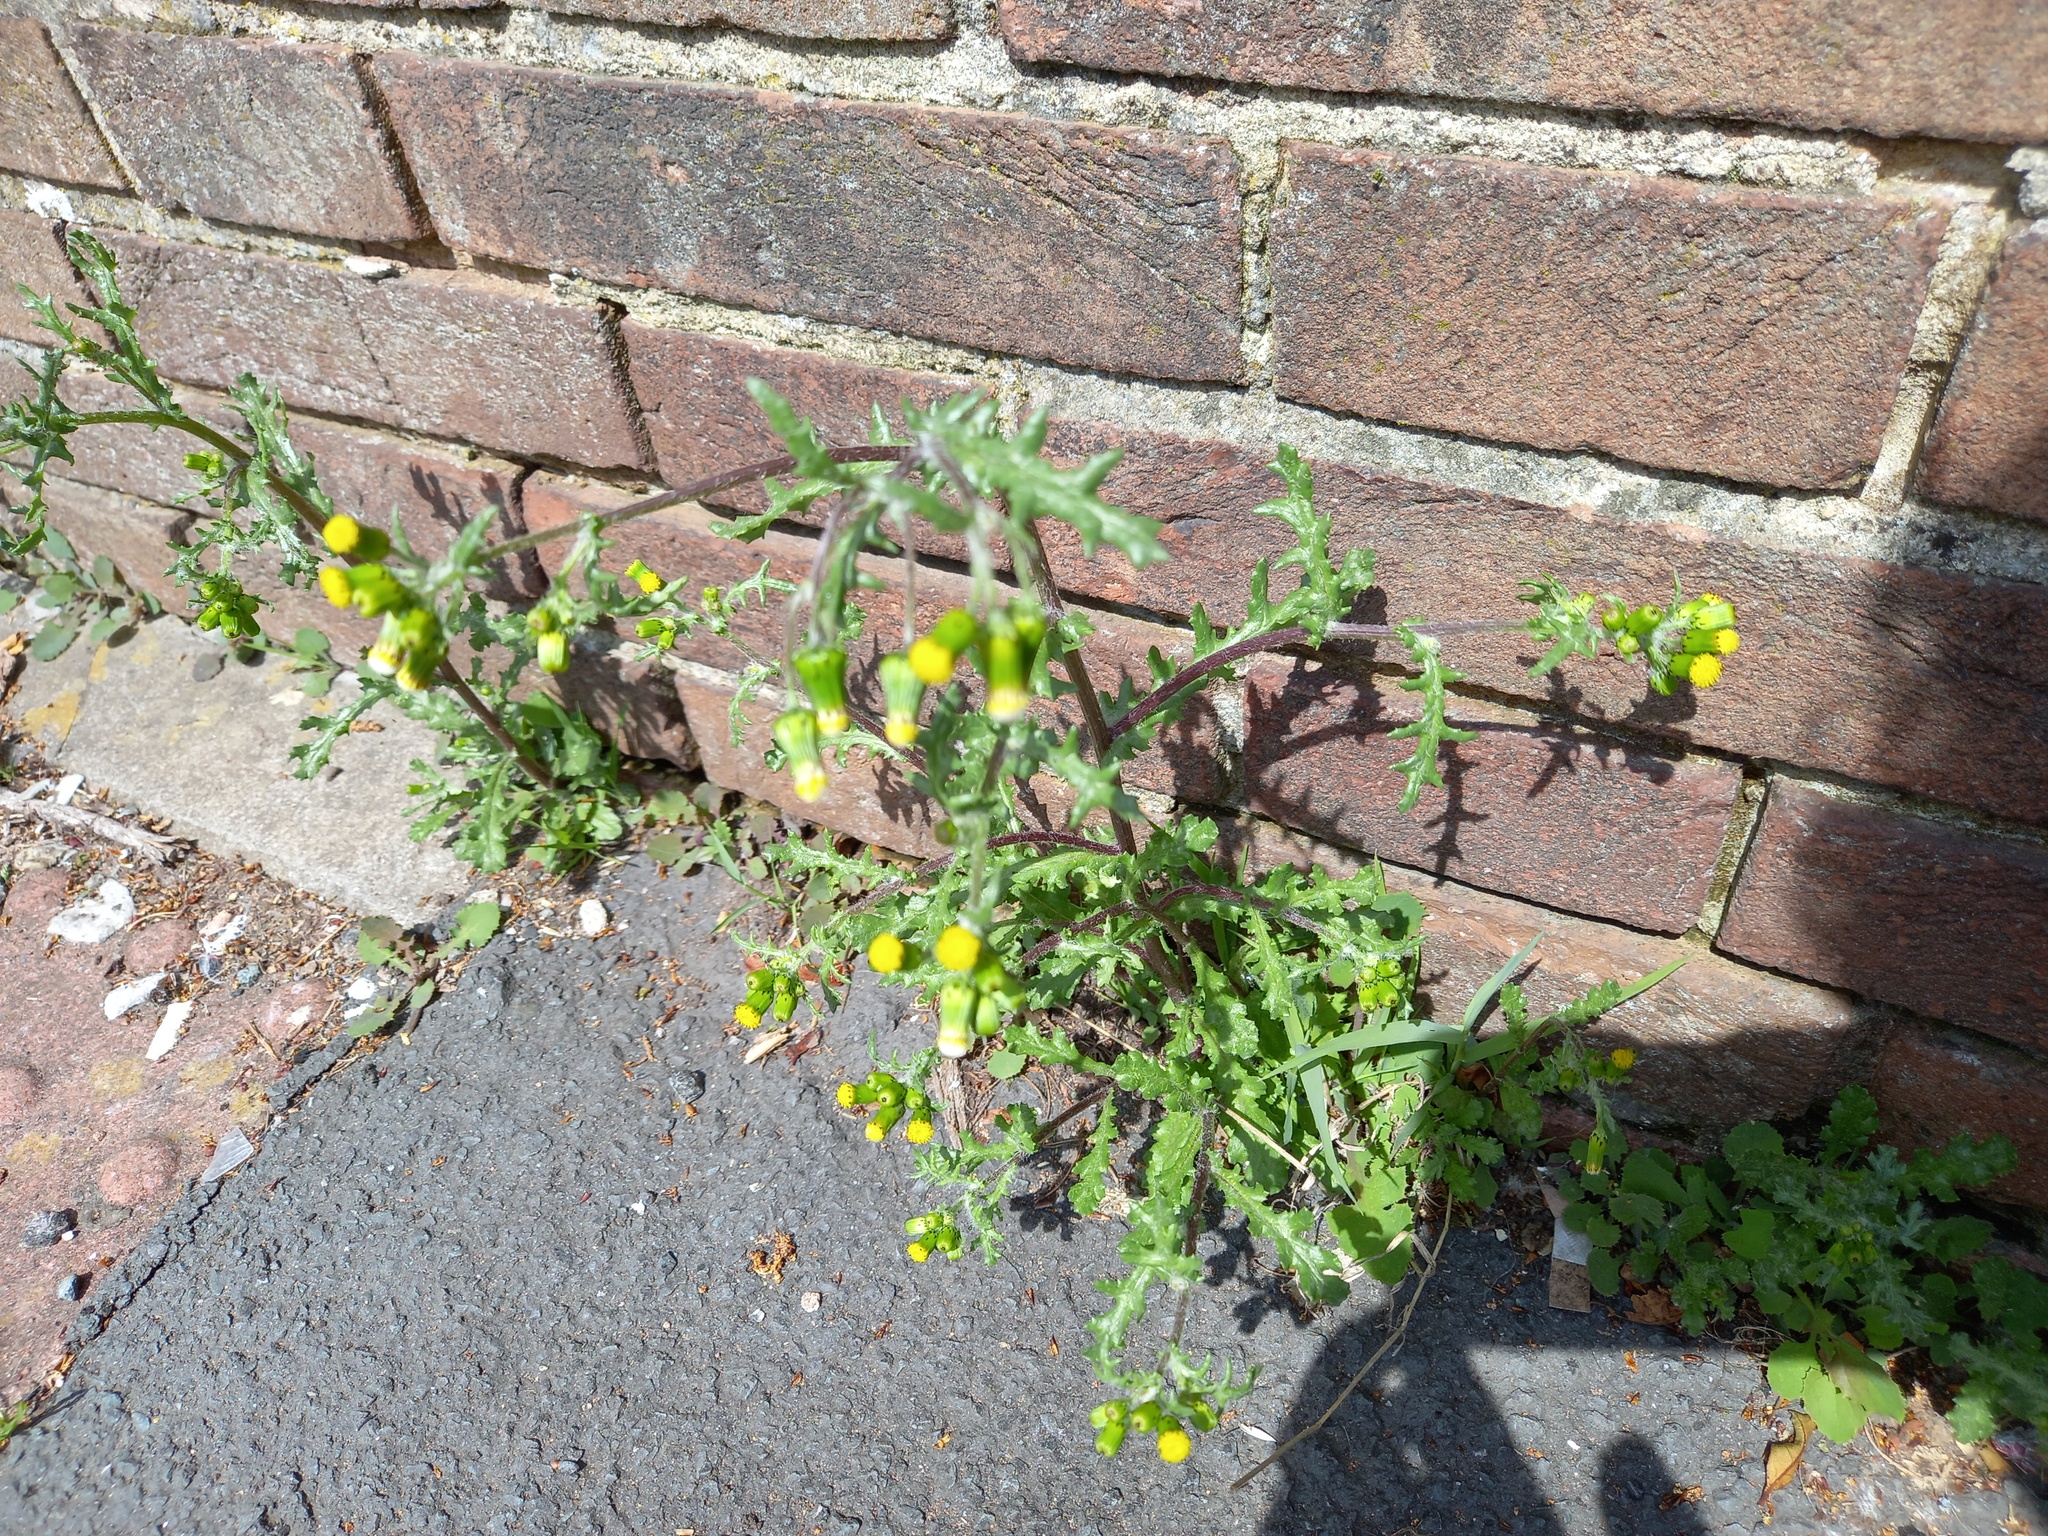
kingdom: Plantae
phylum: Tracheophyta
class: Magnoliopsida
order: Asterales
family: Asteraceae
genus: Senecio
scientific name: Senecio vulgaris
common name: Old-man-in-the-spring
